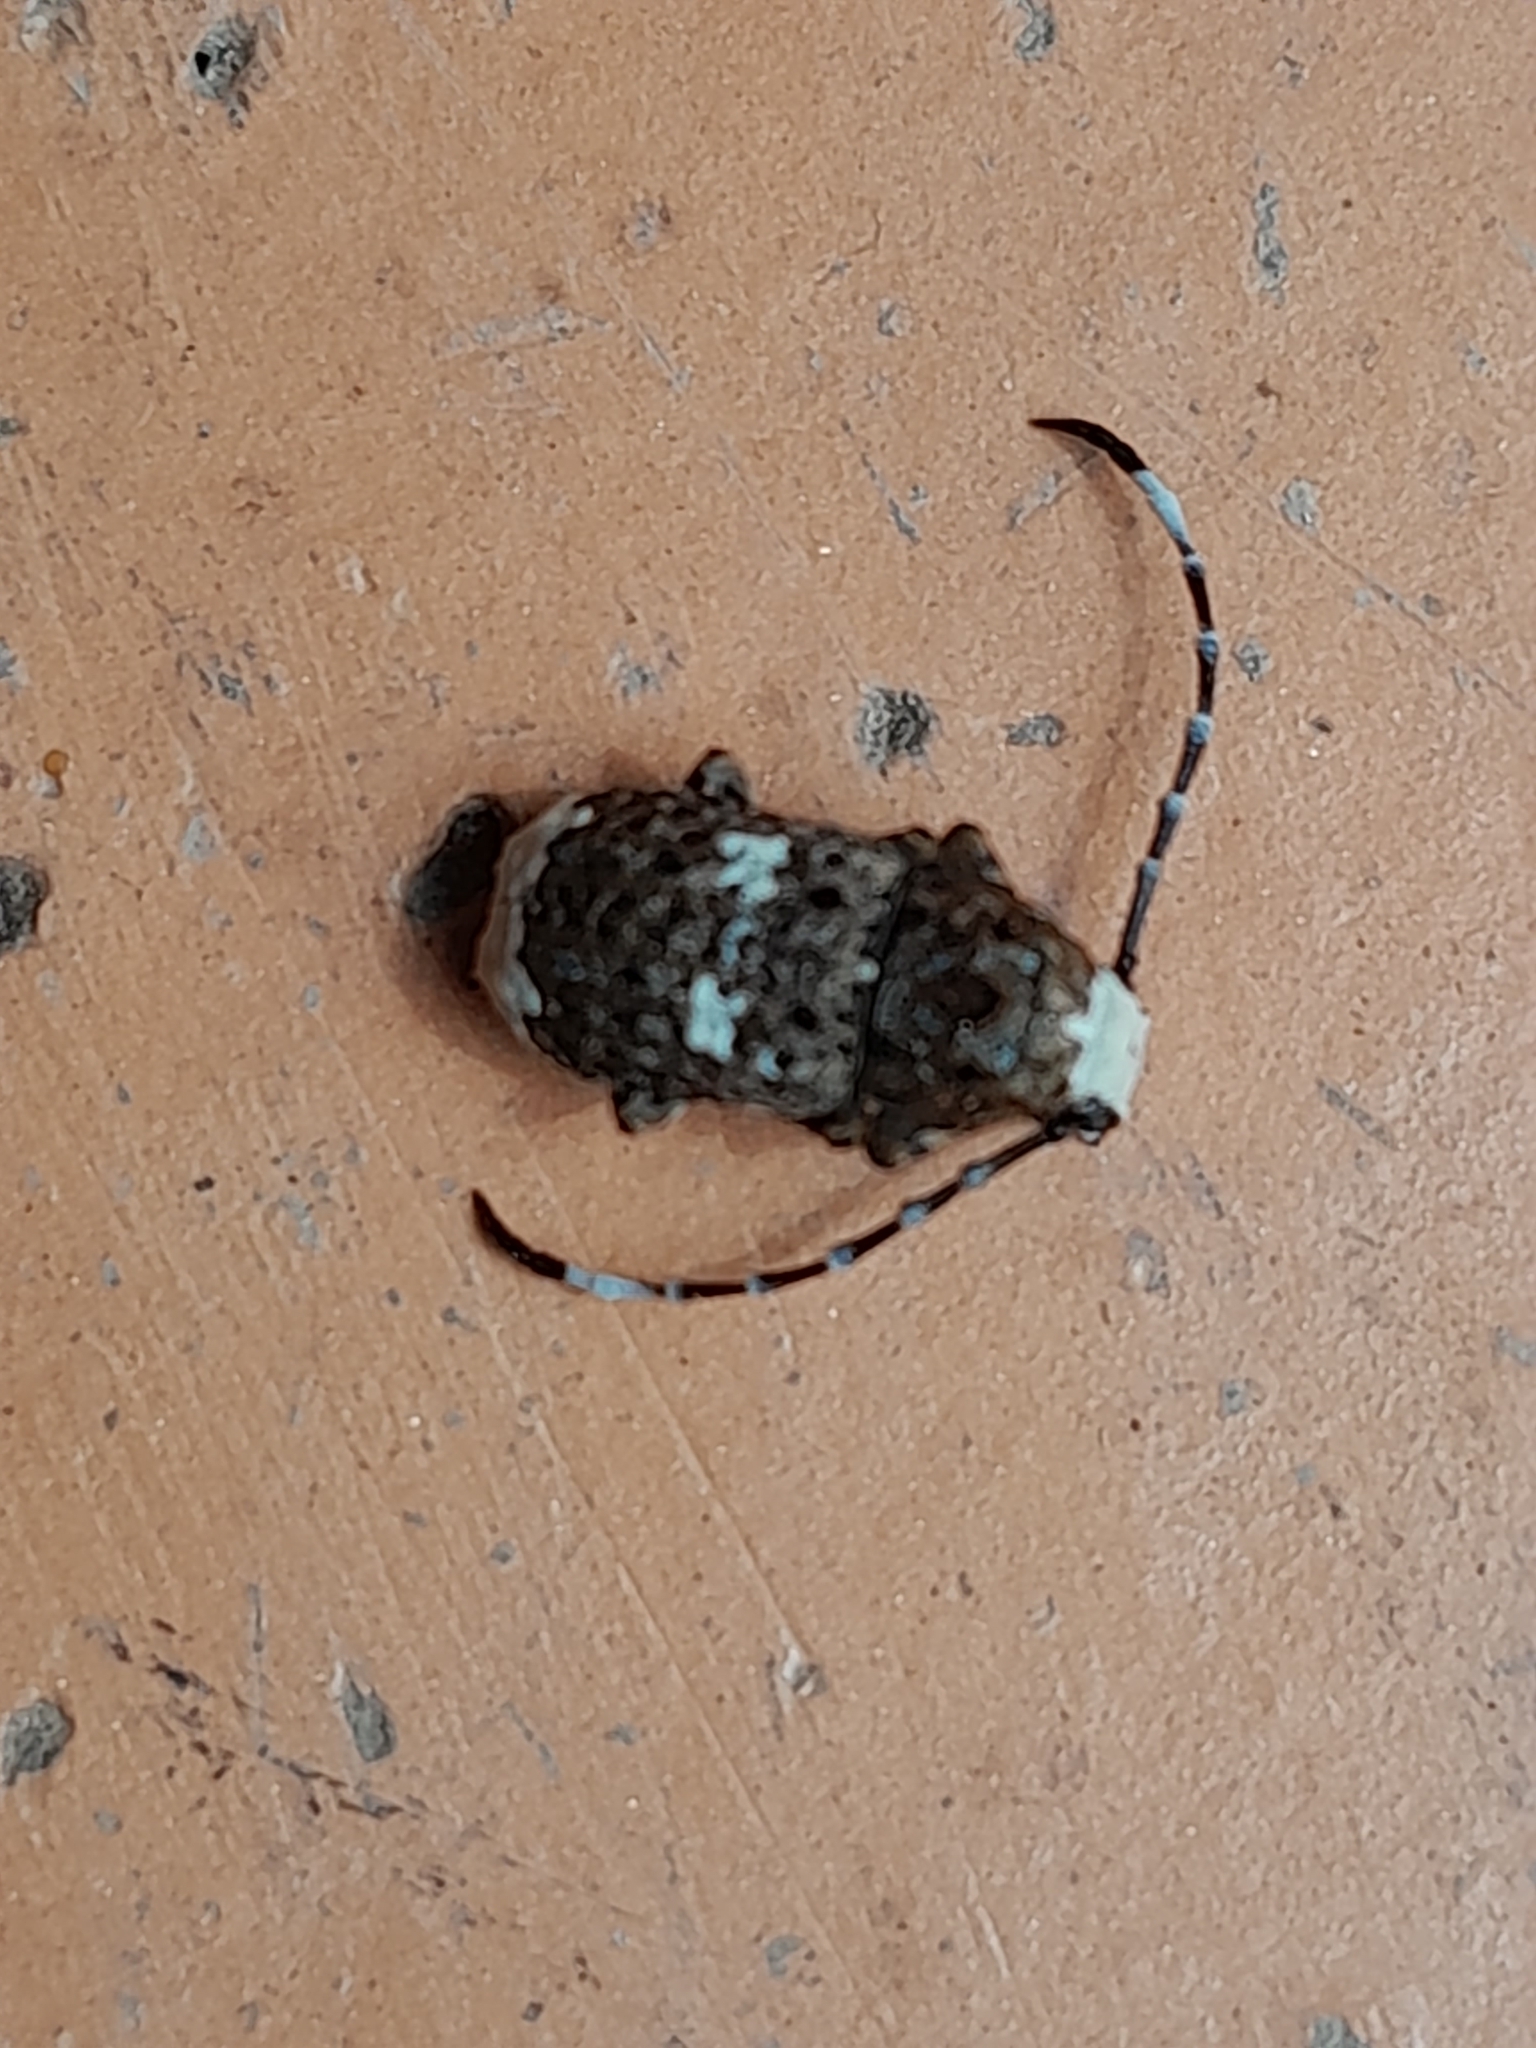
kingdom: Animalia
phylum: Arthropoda
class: Insecta
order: Coleoptera
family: Anthribidae
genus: Platystomos
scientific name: Platystomos albinus
